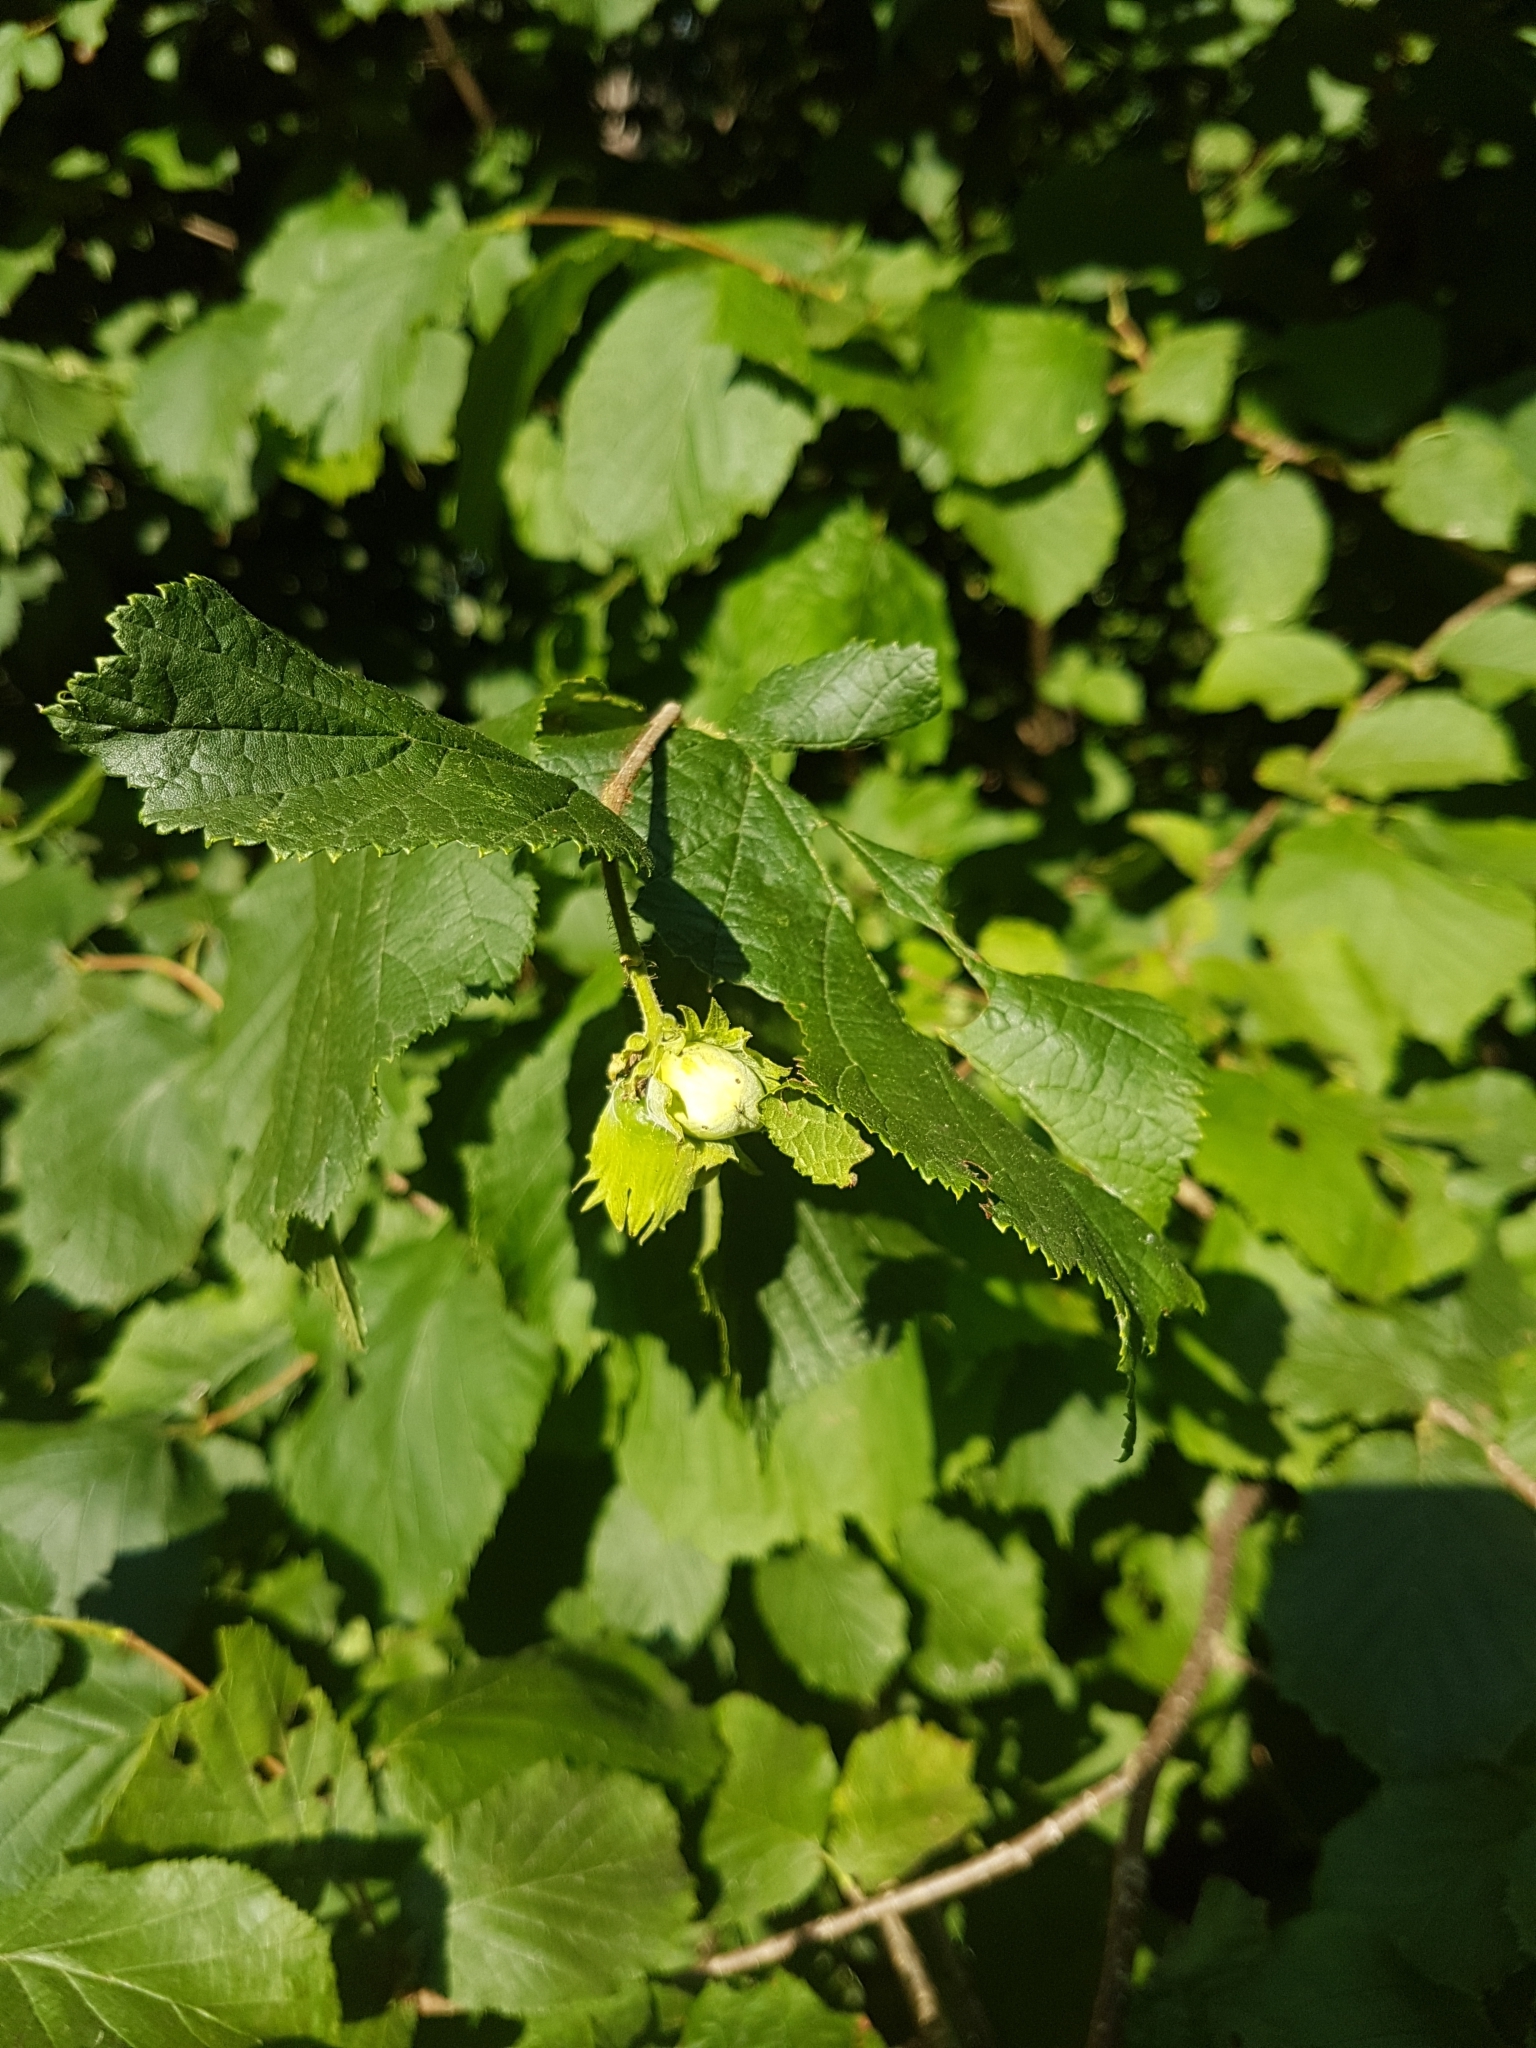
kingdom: Plantae
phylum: Tracheophyta
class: Magnoliopsida
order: Fagales
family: Betulaceae
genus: Corylus
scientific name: Corylus avellana
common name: European hazel
